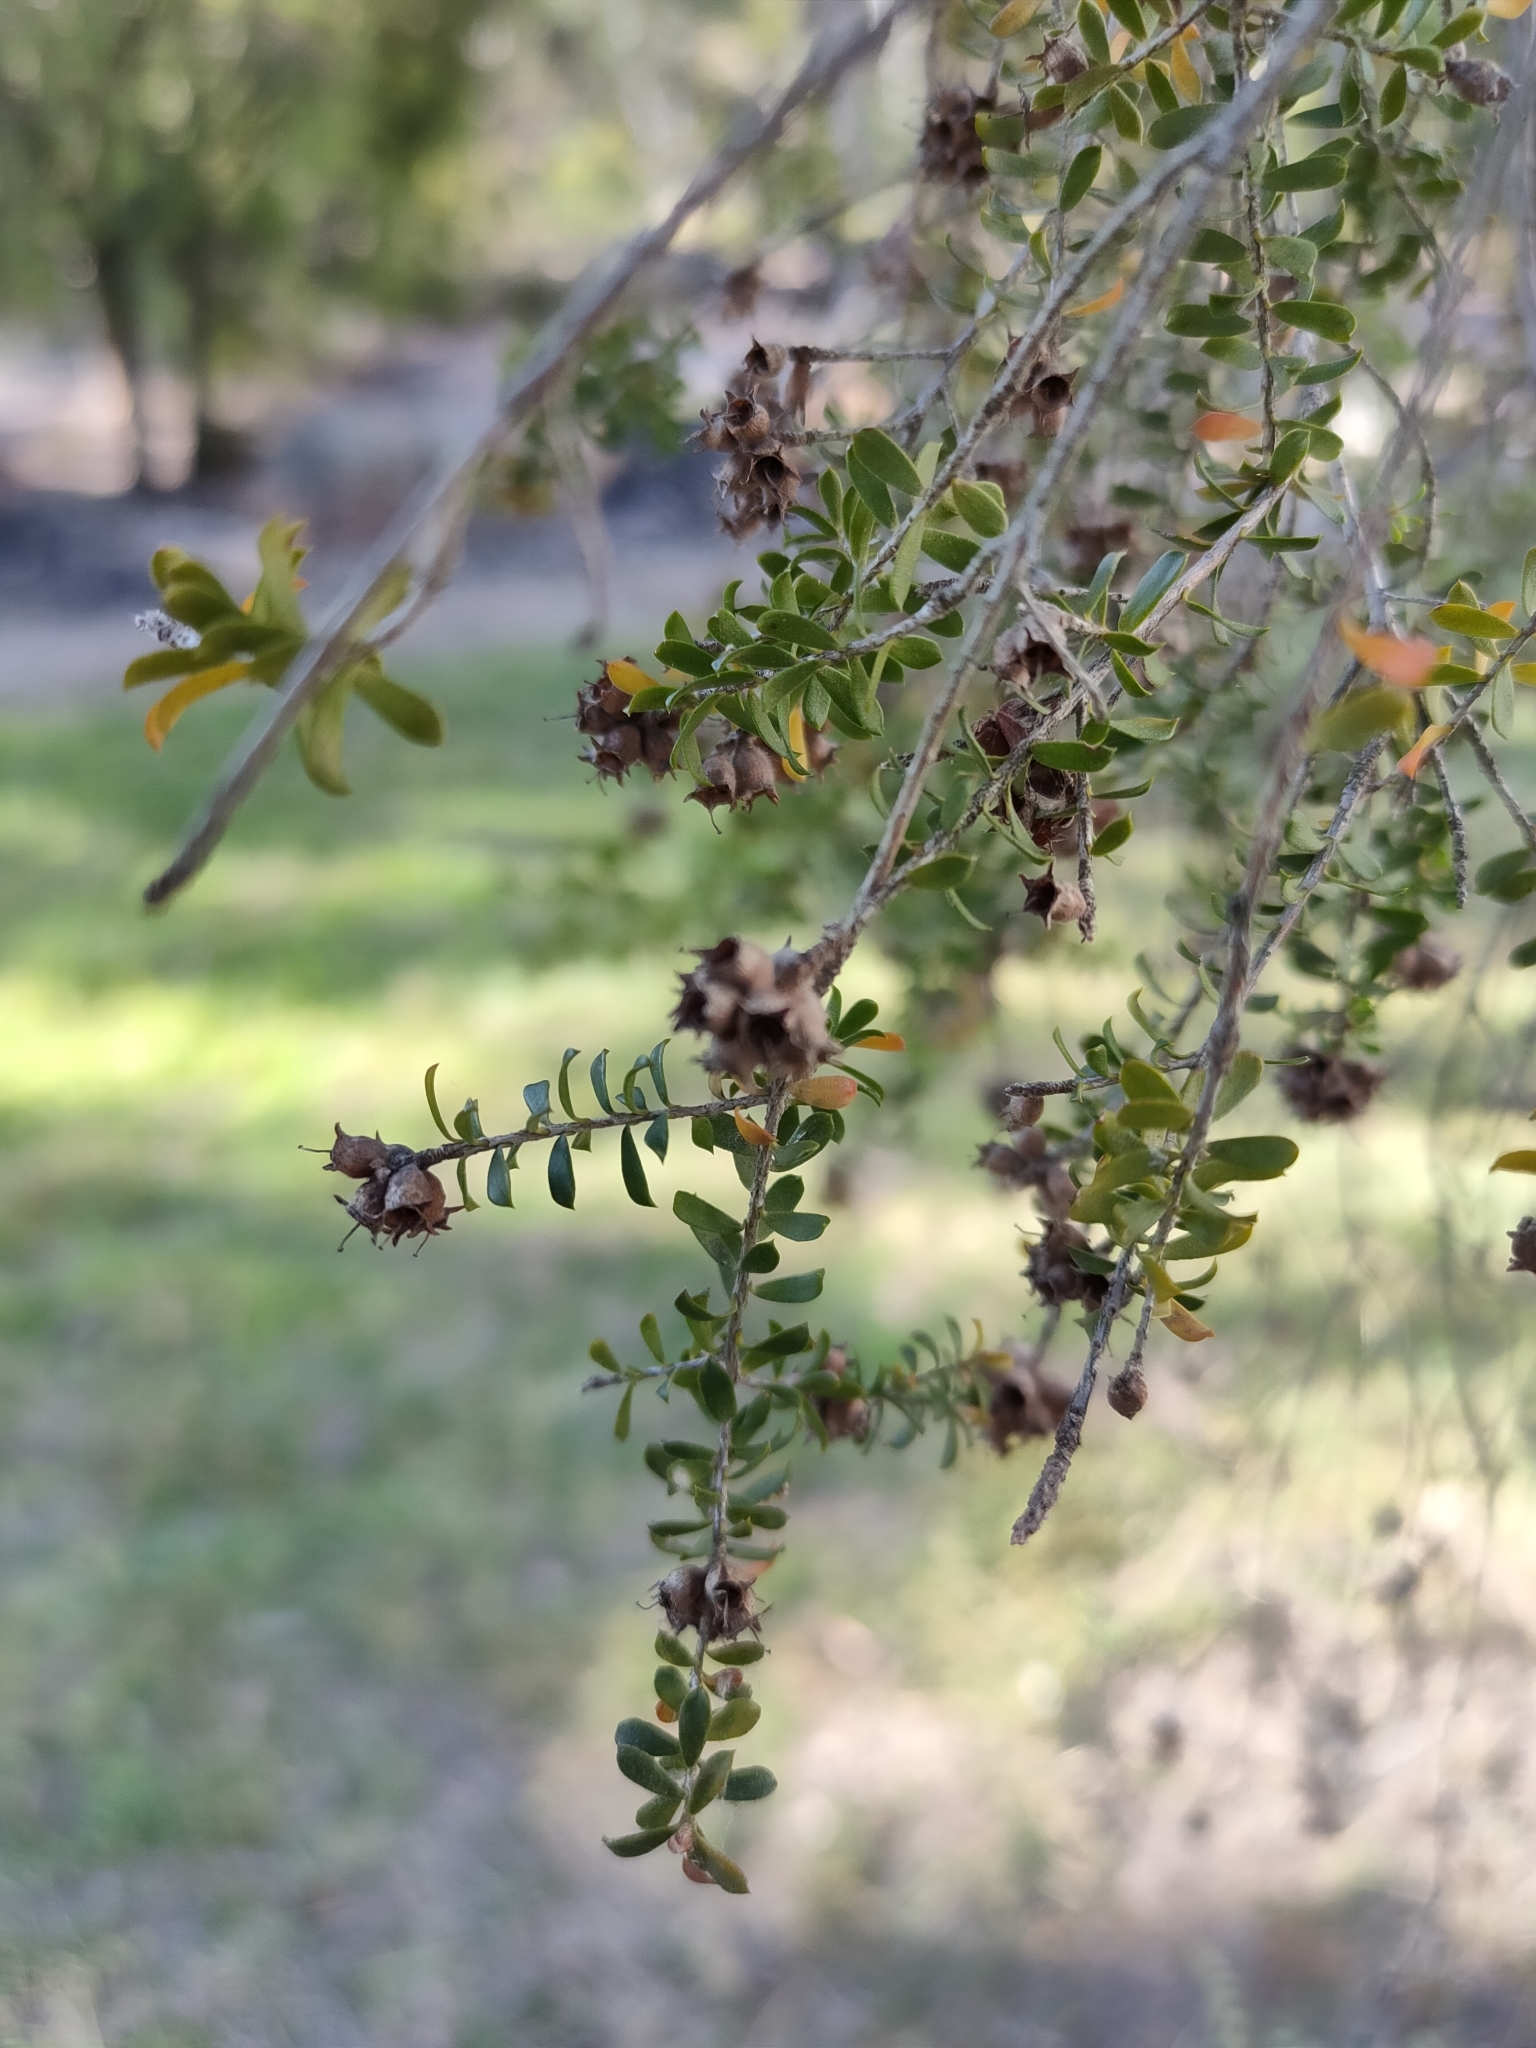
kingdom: Plantae
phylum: Tracheophyta
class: Magnoliopsida
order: Myrtales
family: Myrtaceae
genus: Kunzea
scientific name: Kunzea bracteolata
